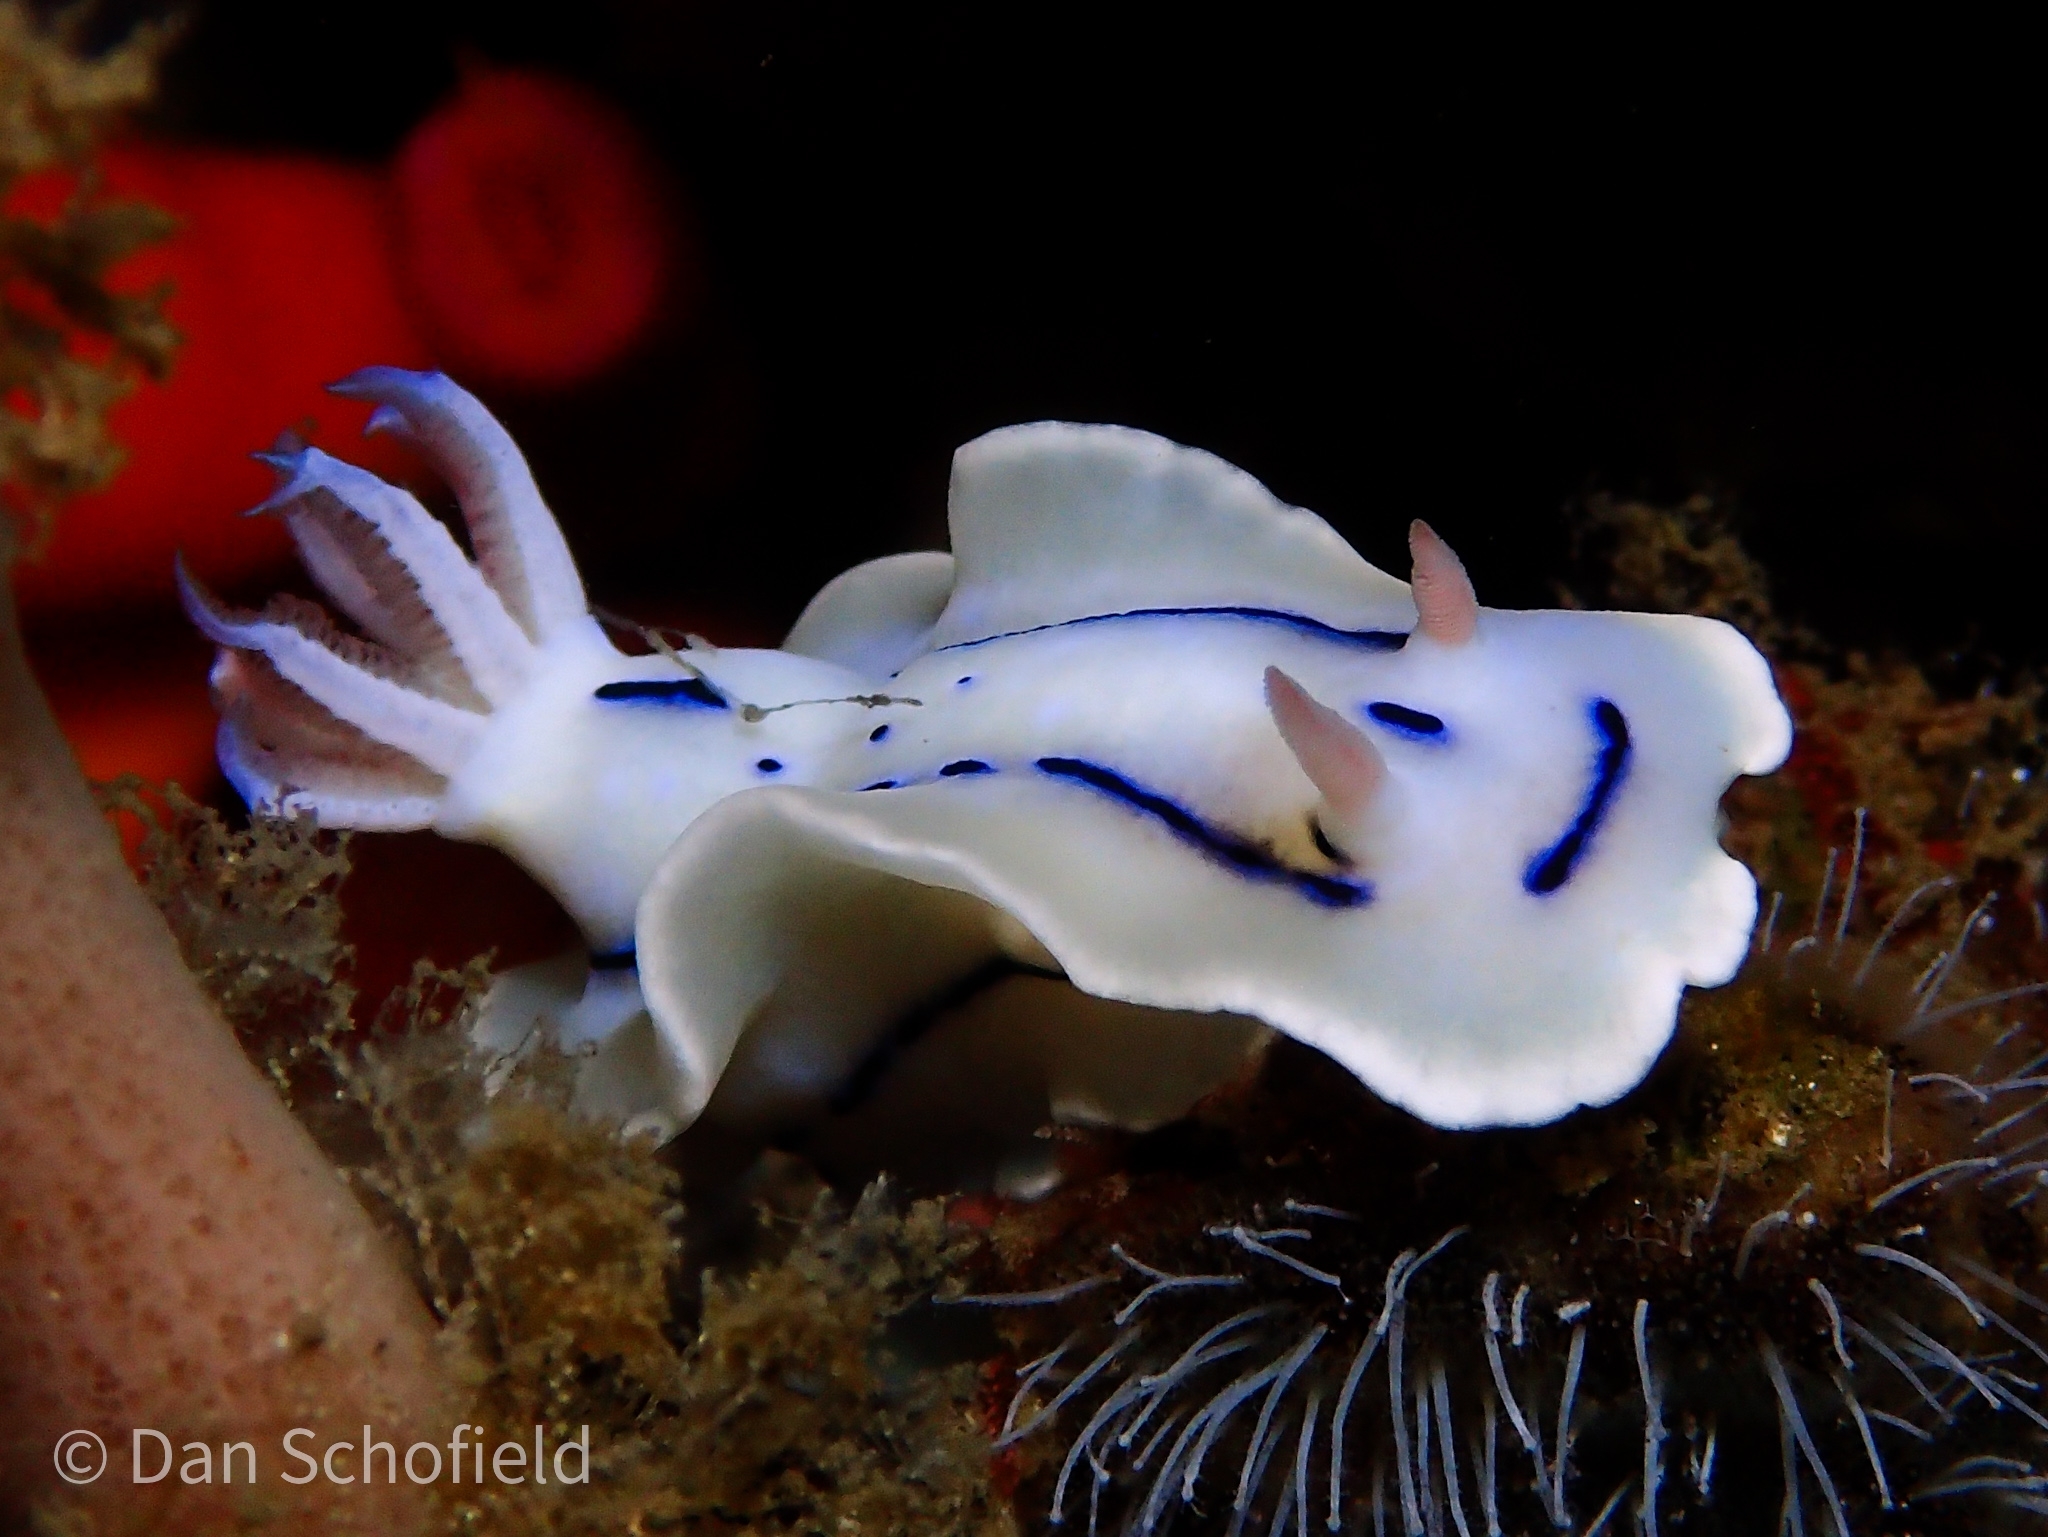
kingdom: Animalia
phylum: Mollusca
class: Gastropoda
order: Nudibranchia
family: Chromodorididae
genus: Chromodoris
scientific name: Chromodoris lochi
